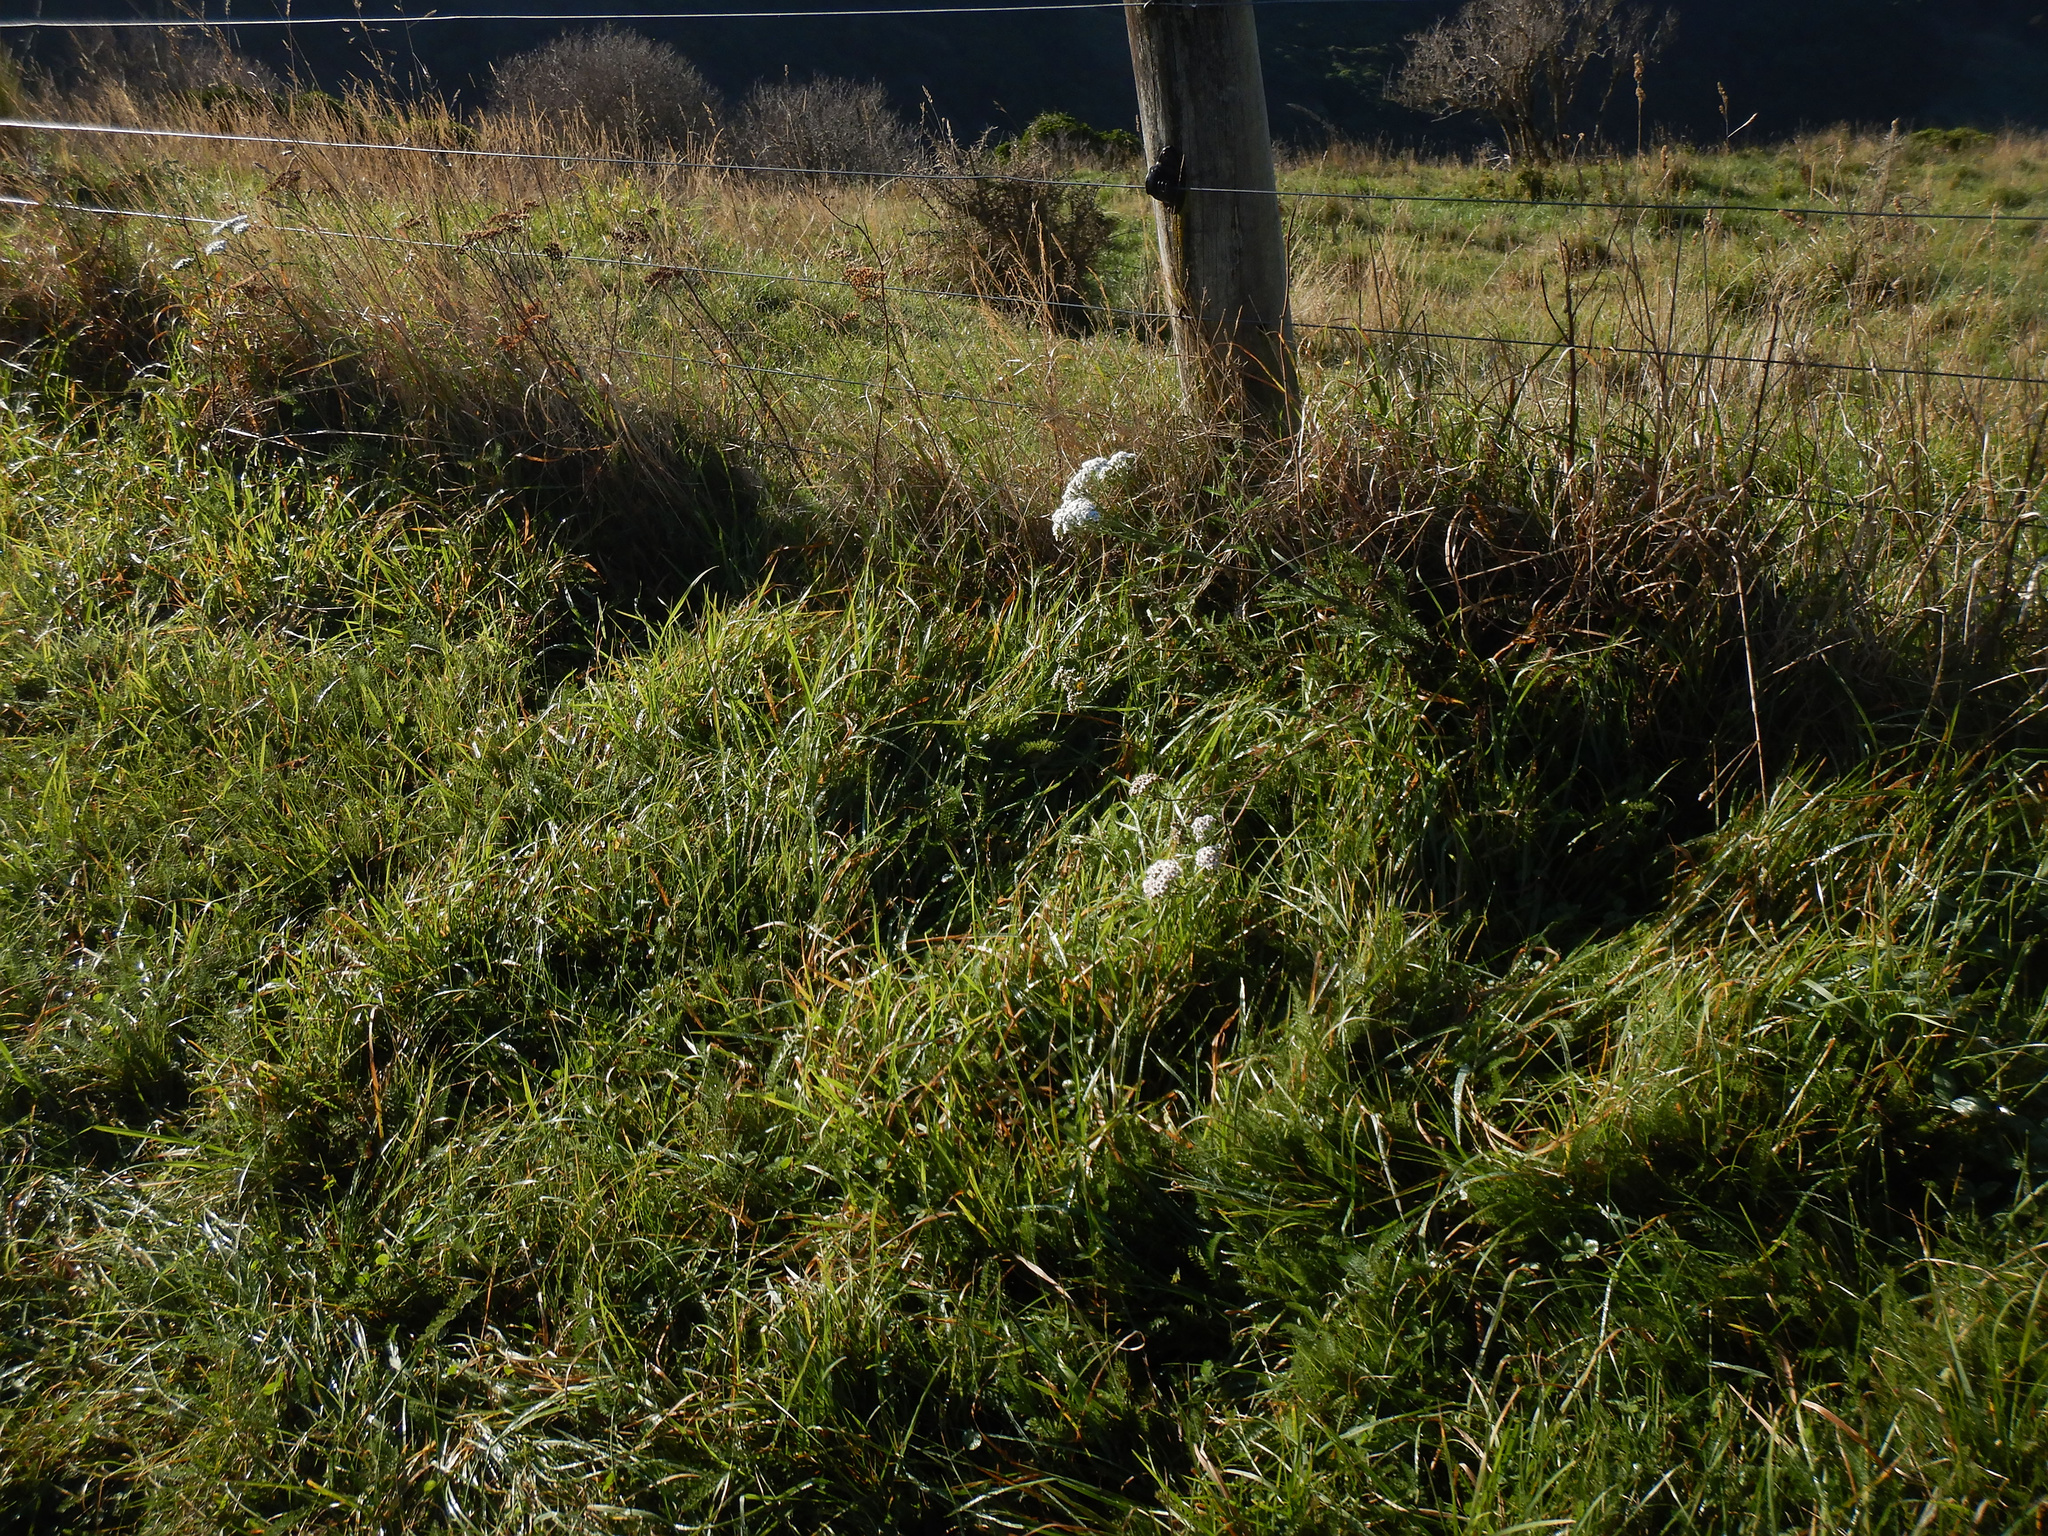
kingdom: Plantae
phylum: Tracheophyta
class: Magnoliopsida
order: Asterales
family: Asteraceae
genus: Achillea
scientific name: Achillea millefolium
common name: Yarrow
